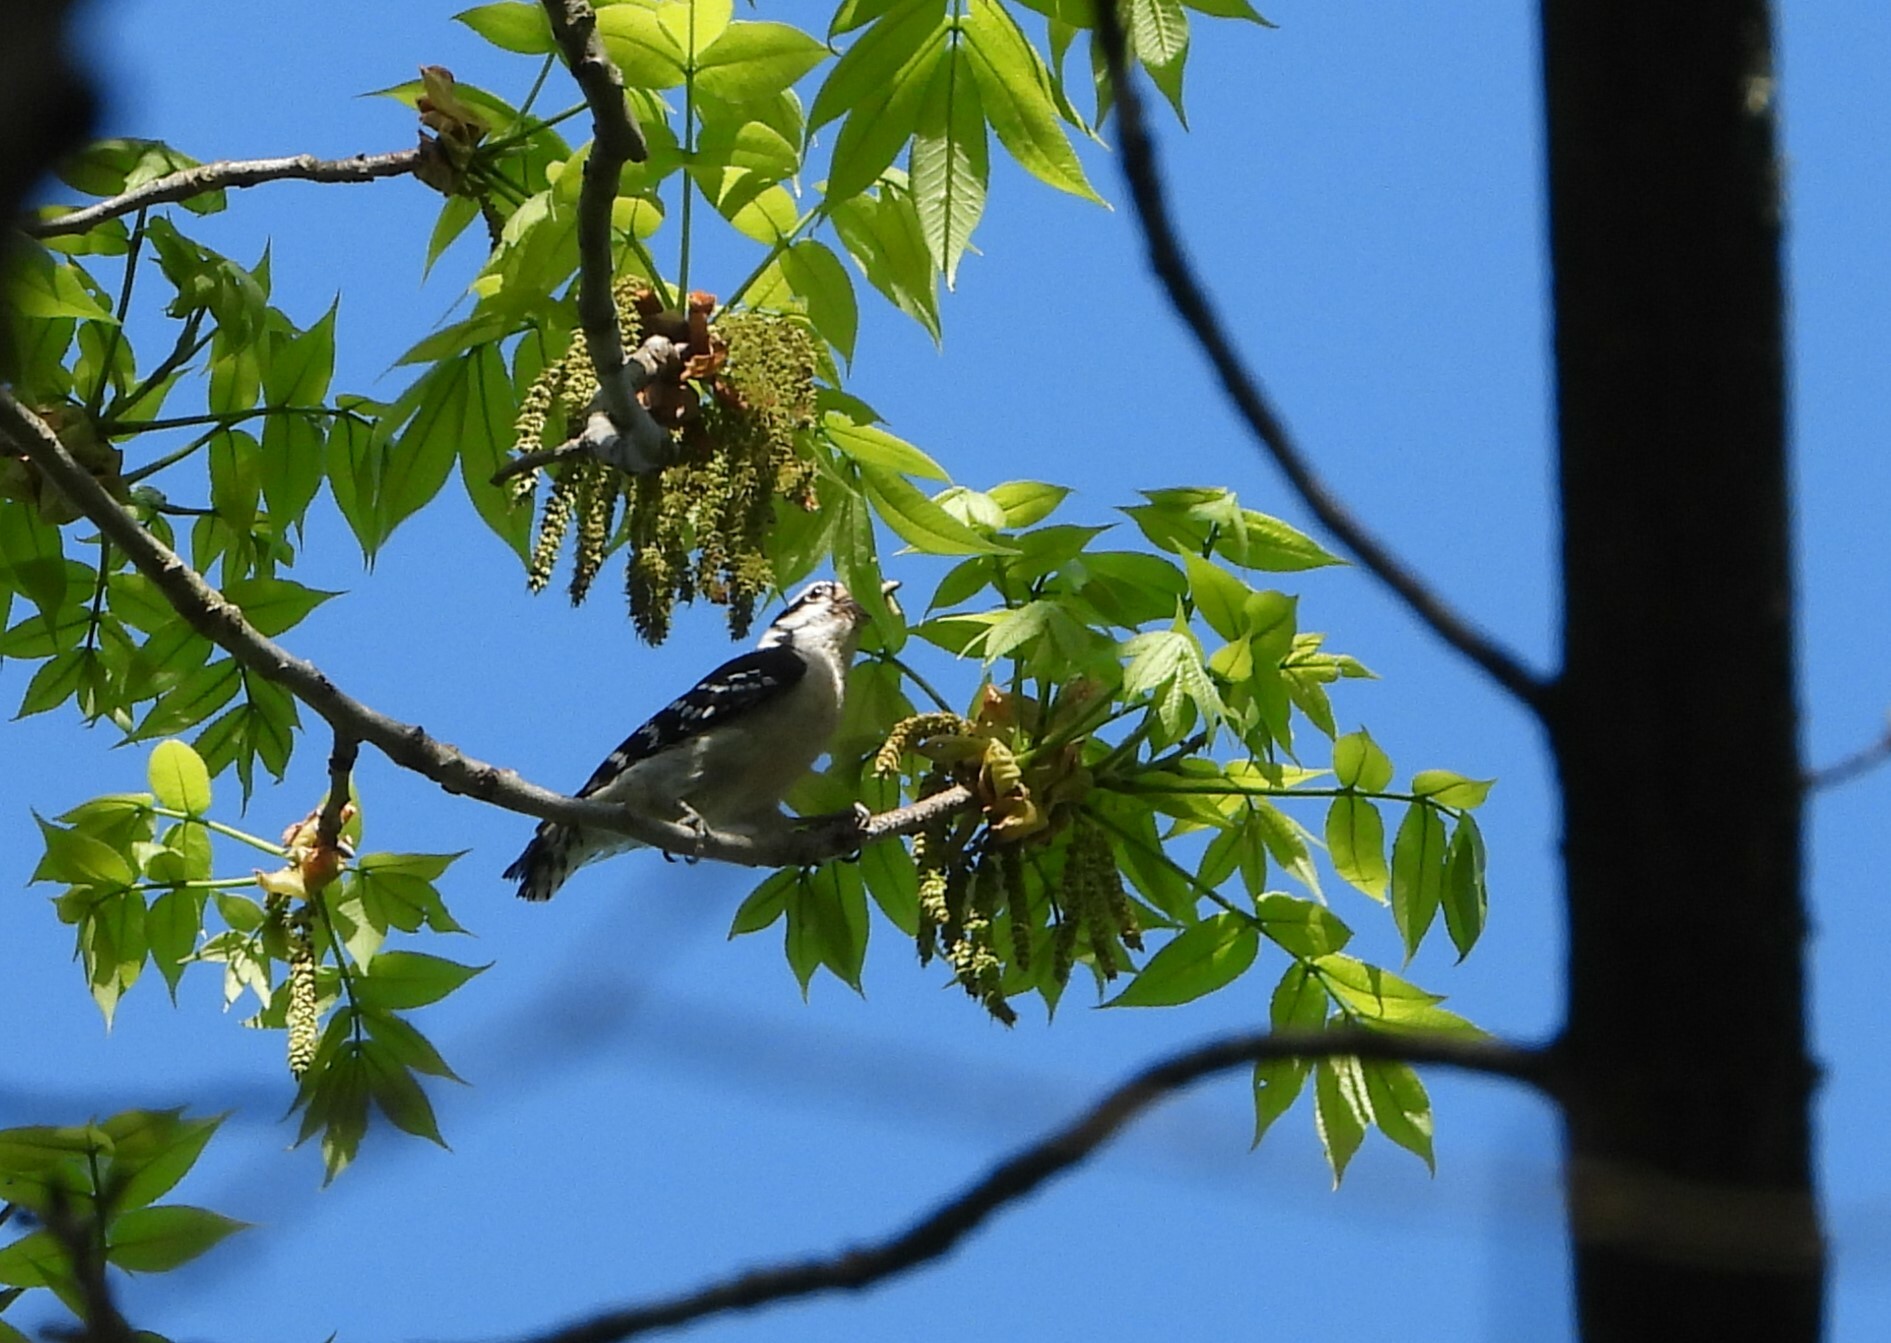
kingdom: Animalia
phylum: Chordata
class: Aves
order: Piciformes
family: Picidae
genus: Dryobates
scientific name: Dryobates pubescens
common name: Downy woodpecker
